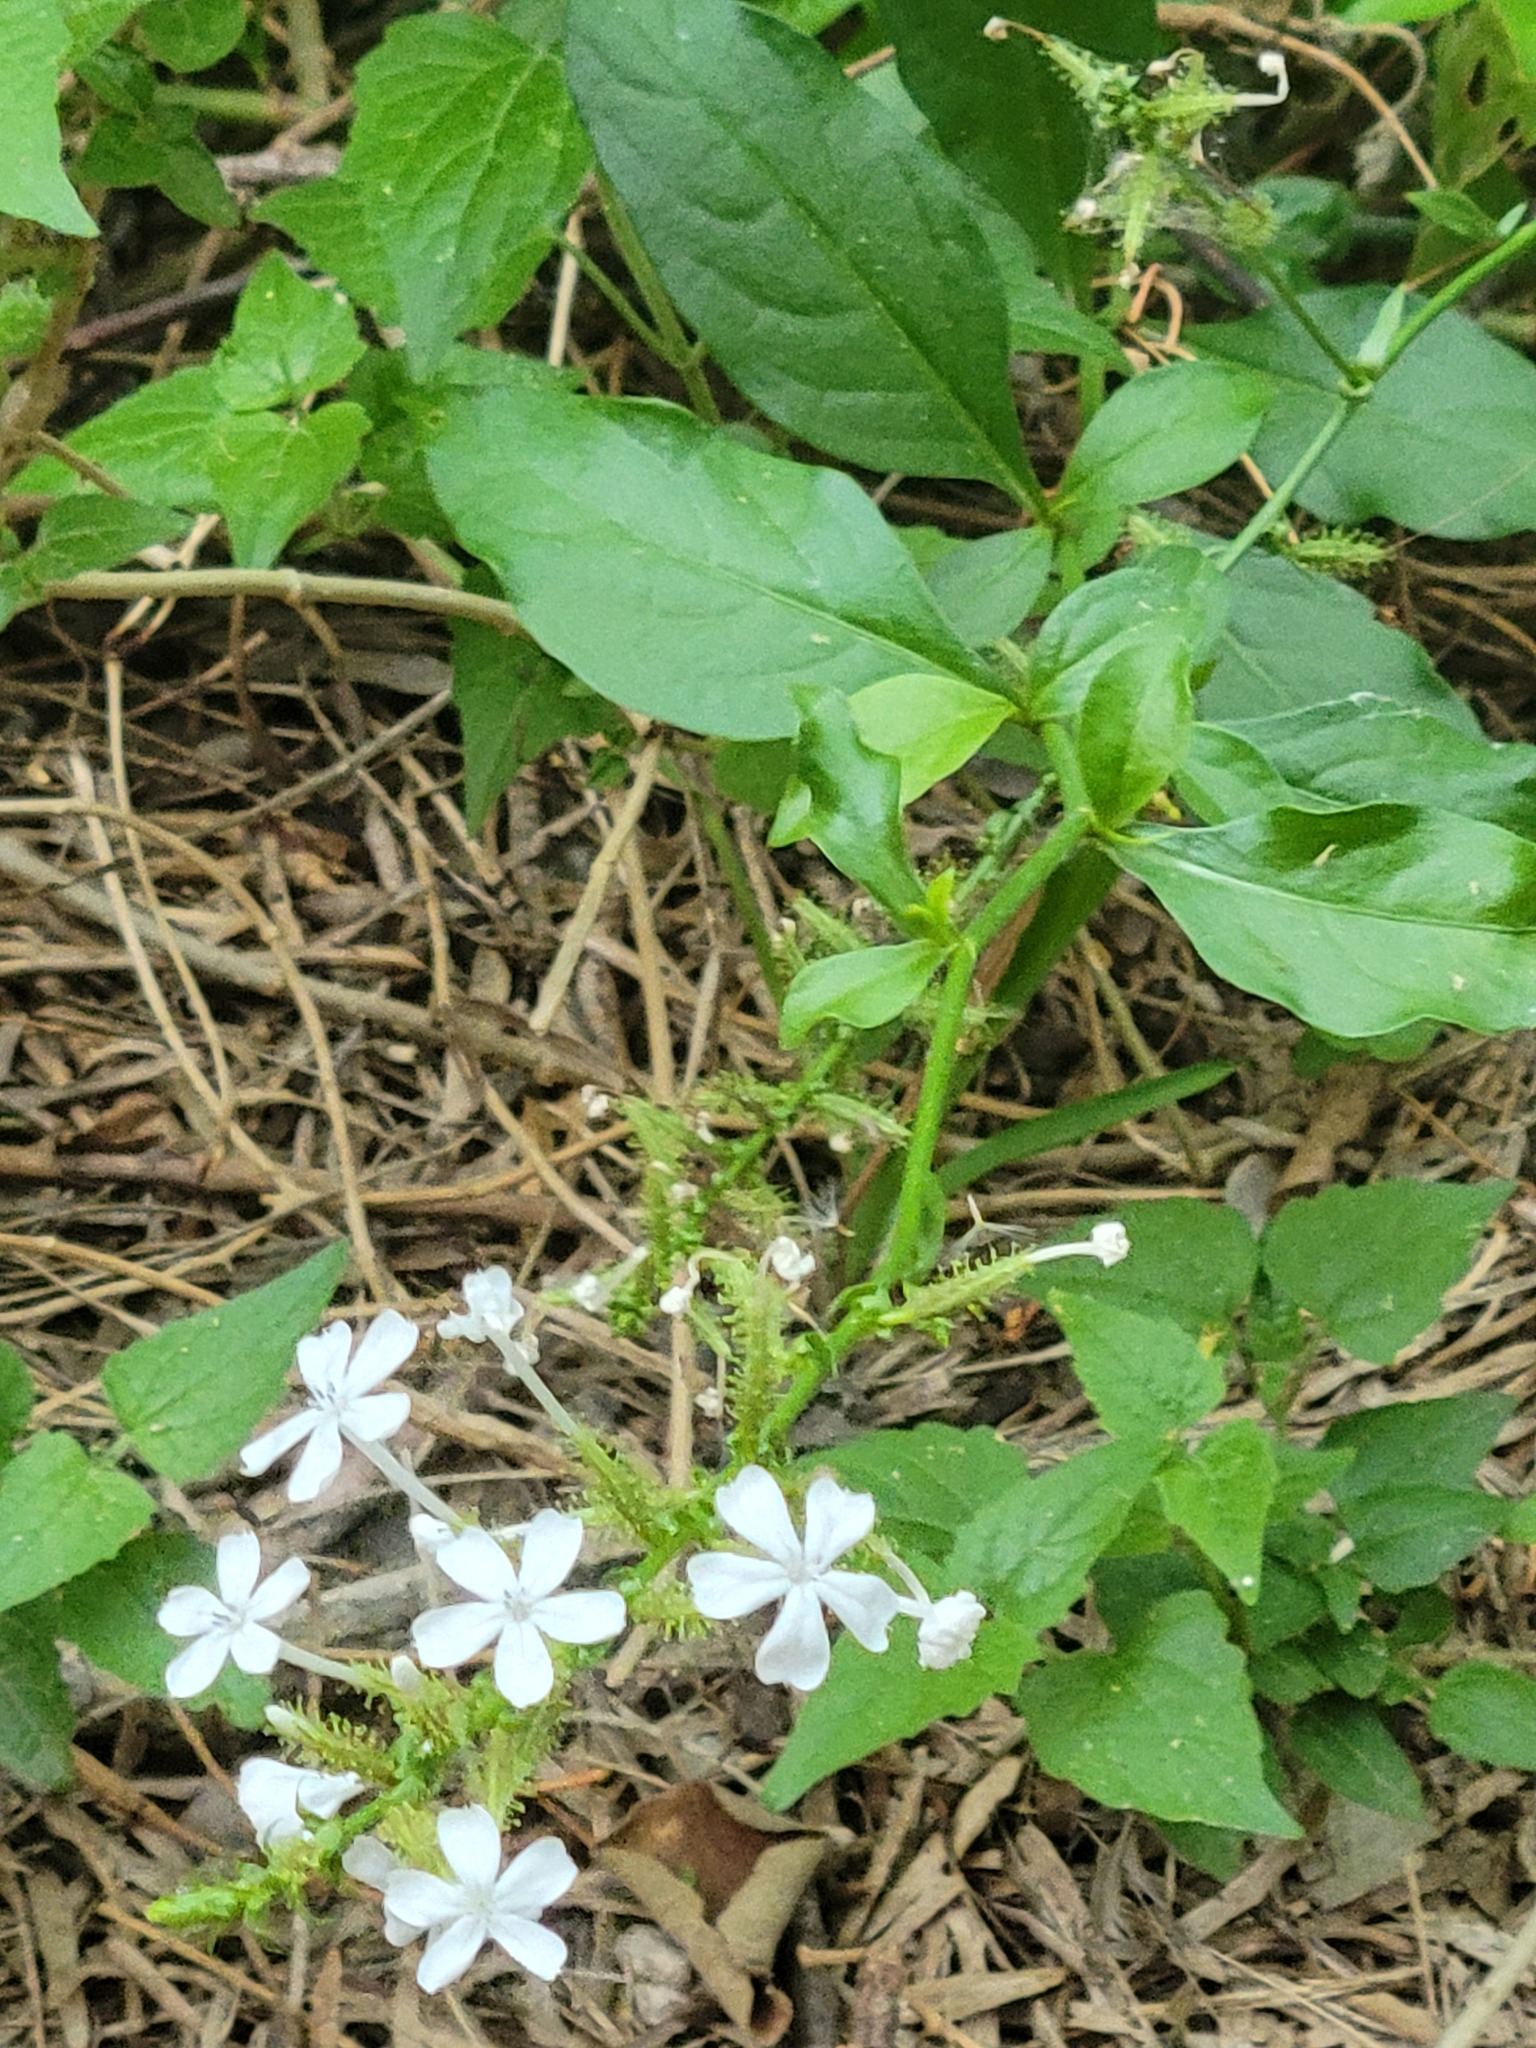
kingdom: Plantae
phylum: Tracheophyta
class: Magnoliopsida
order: Caryophyllales
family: Plumbaginaceae
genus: Plumbago
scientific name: Plumbago zeylanica
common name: Doctorbush
